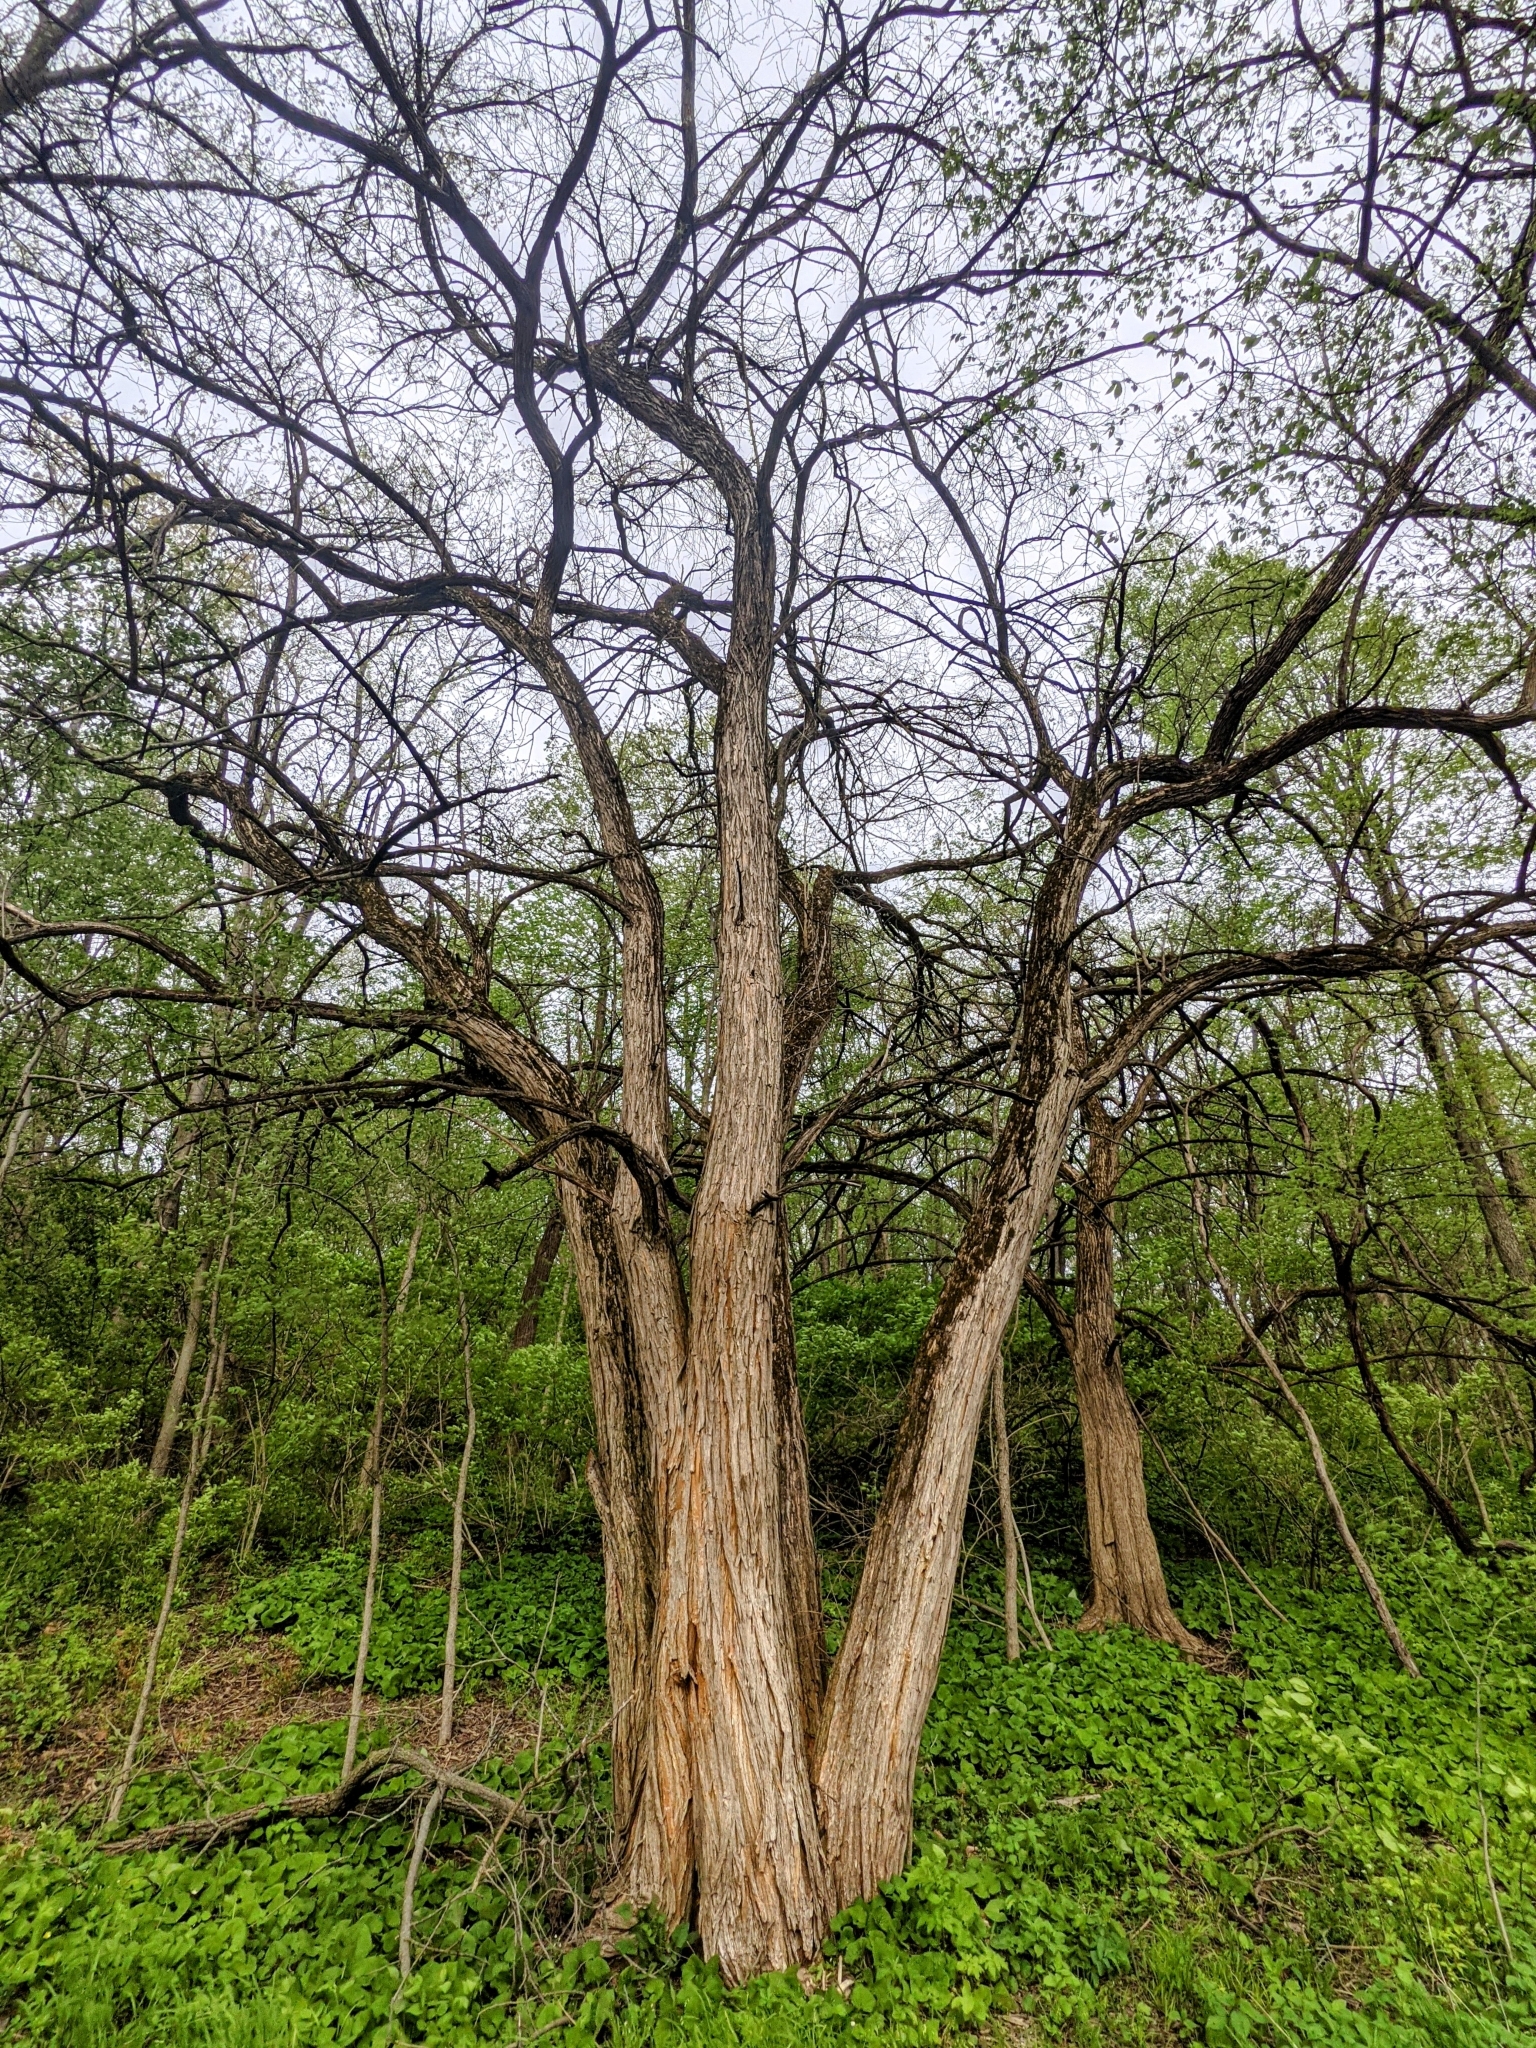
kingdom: Plantae
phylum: Tracheophyta
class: Magnoliopsida
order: Rosales
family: Moraceae
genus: Maclura
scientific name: Maclura pomifera
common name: Osage-orange
